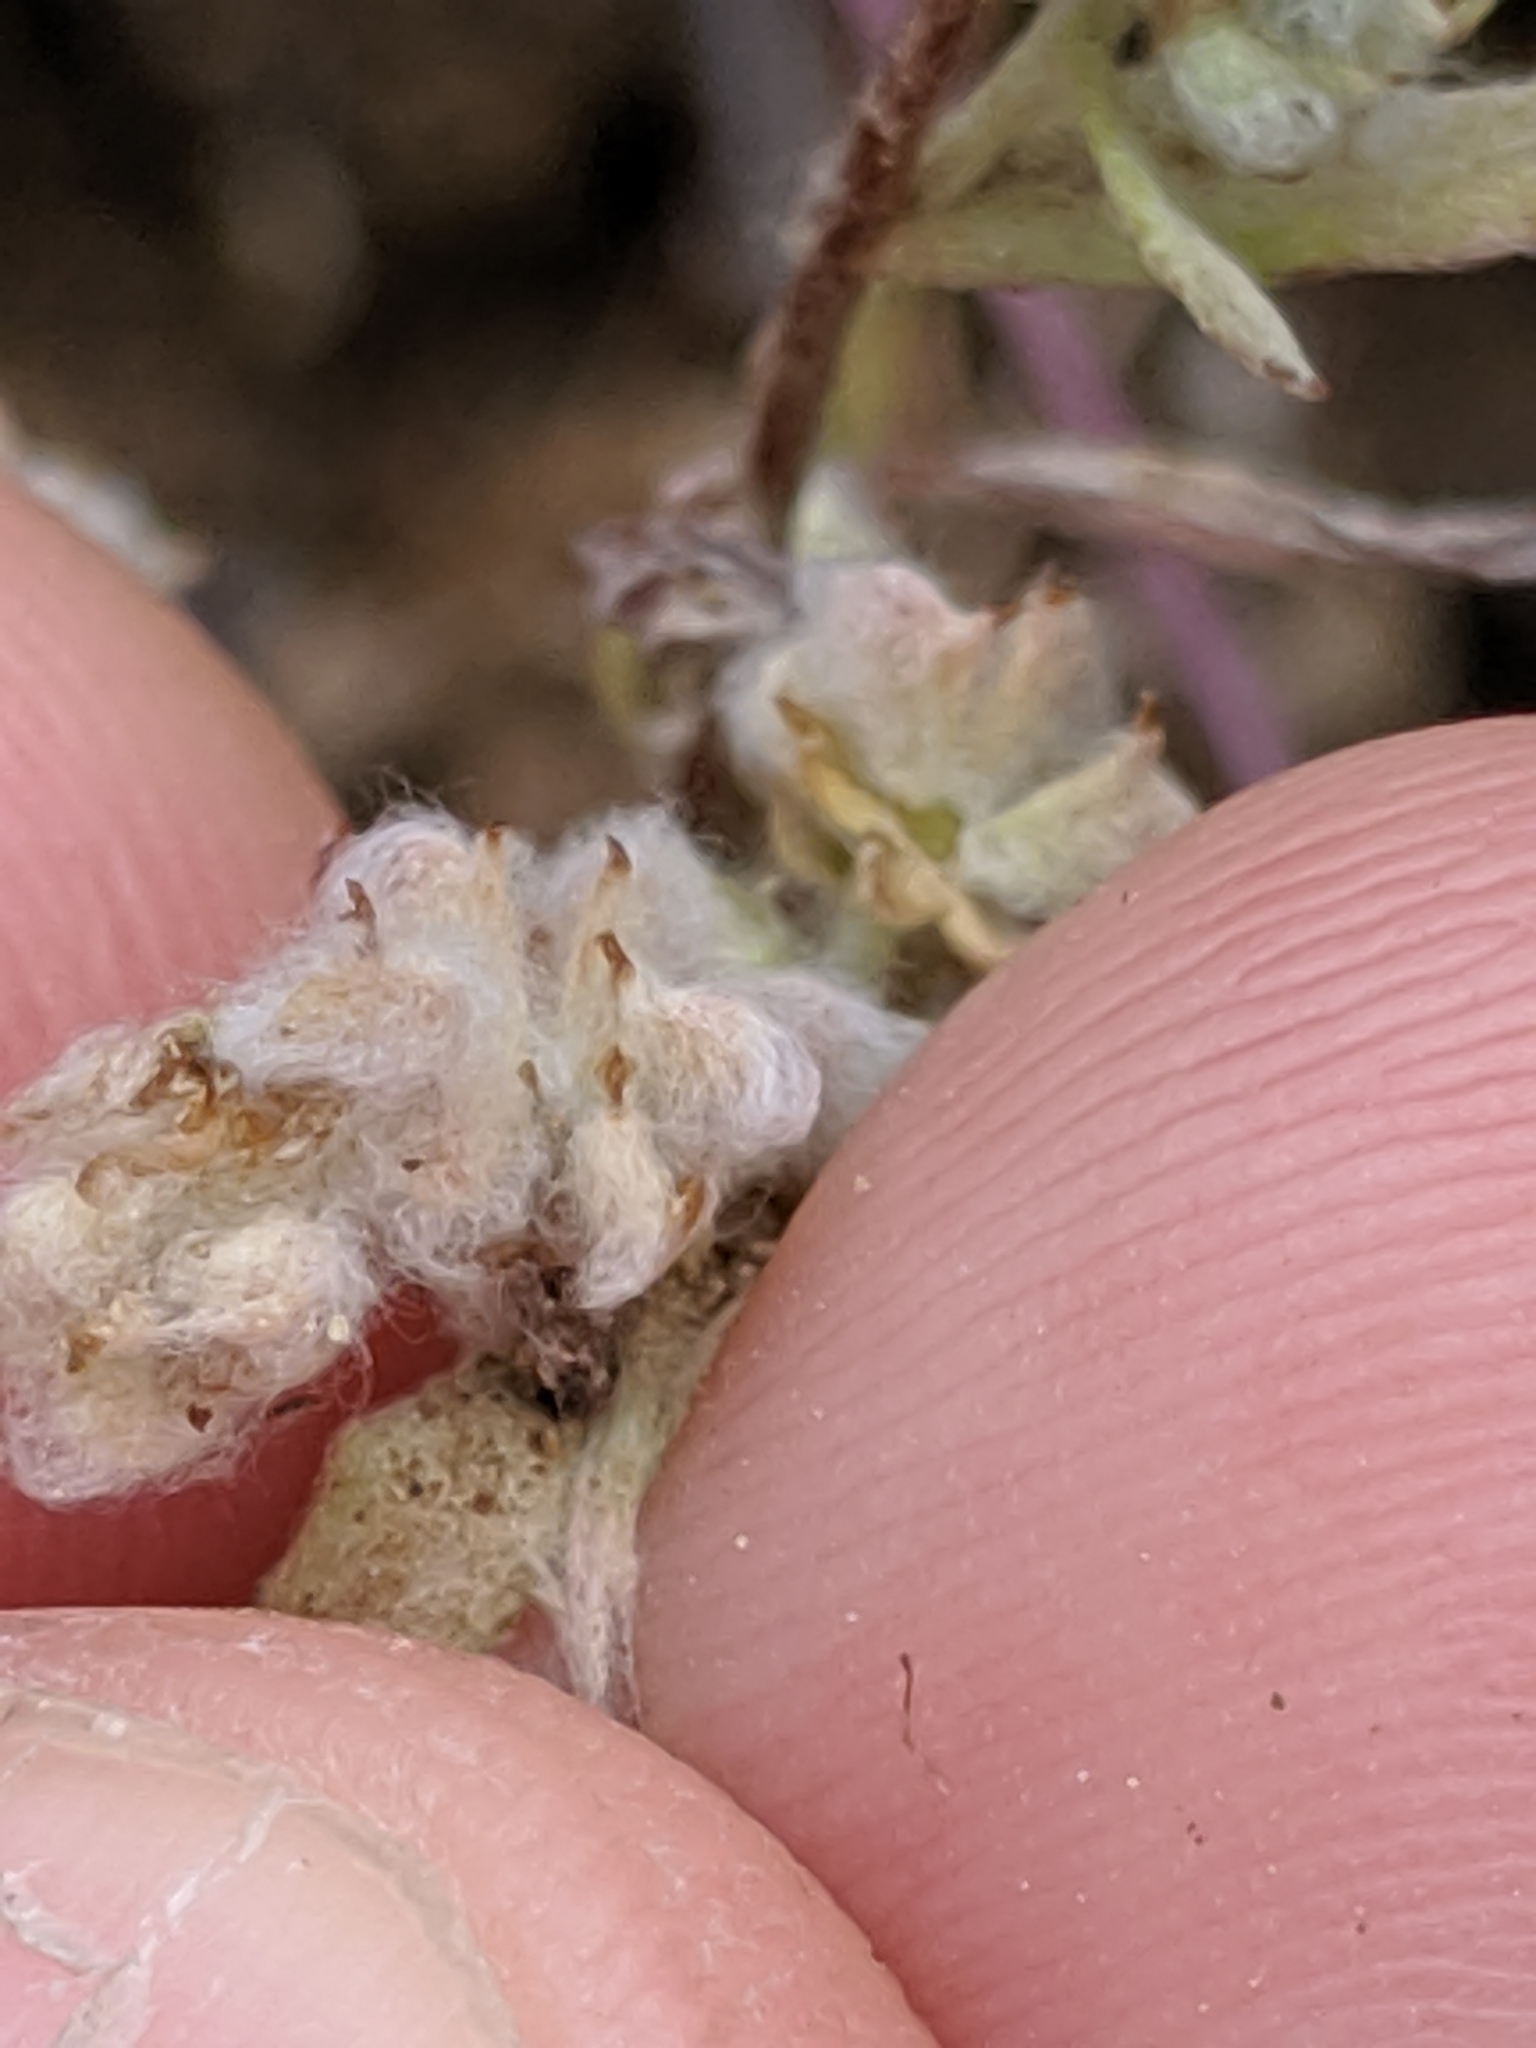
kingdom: Plantae
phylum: Tracheophyta
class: Magnoliopsida
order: Asterales
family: Asteraceae
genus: Bombycilaena
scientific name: Bombycilaena californica
